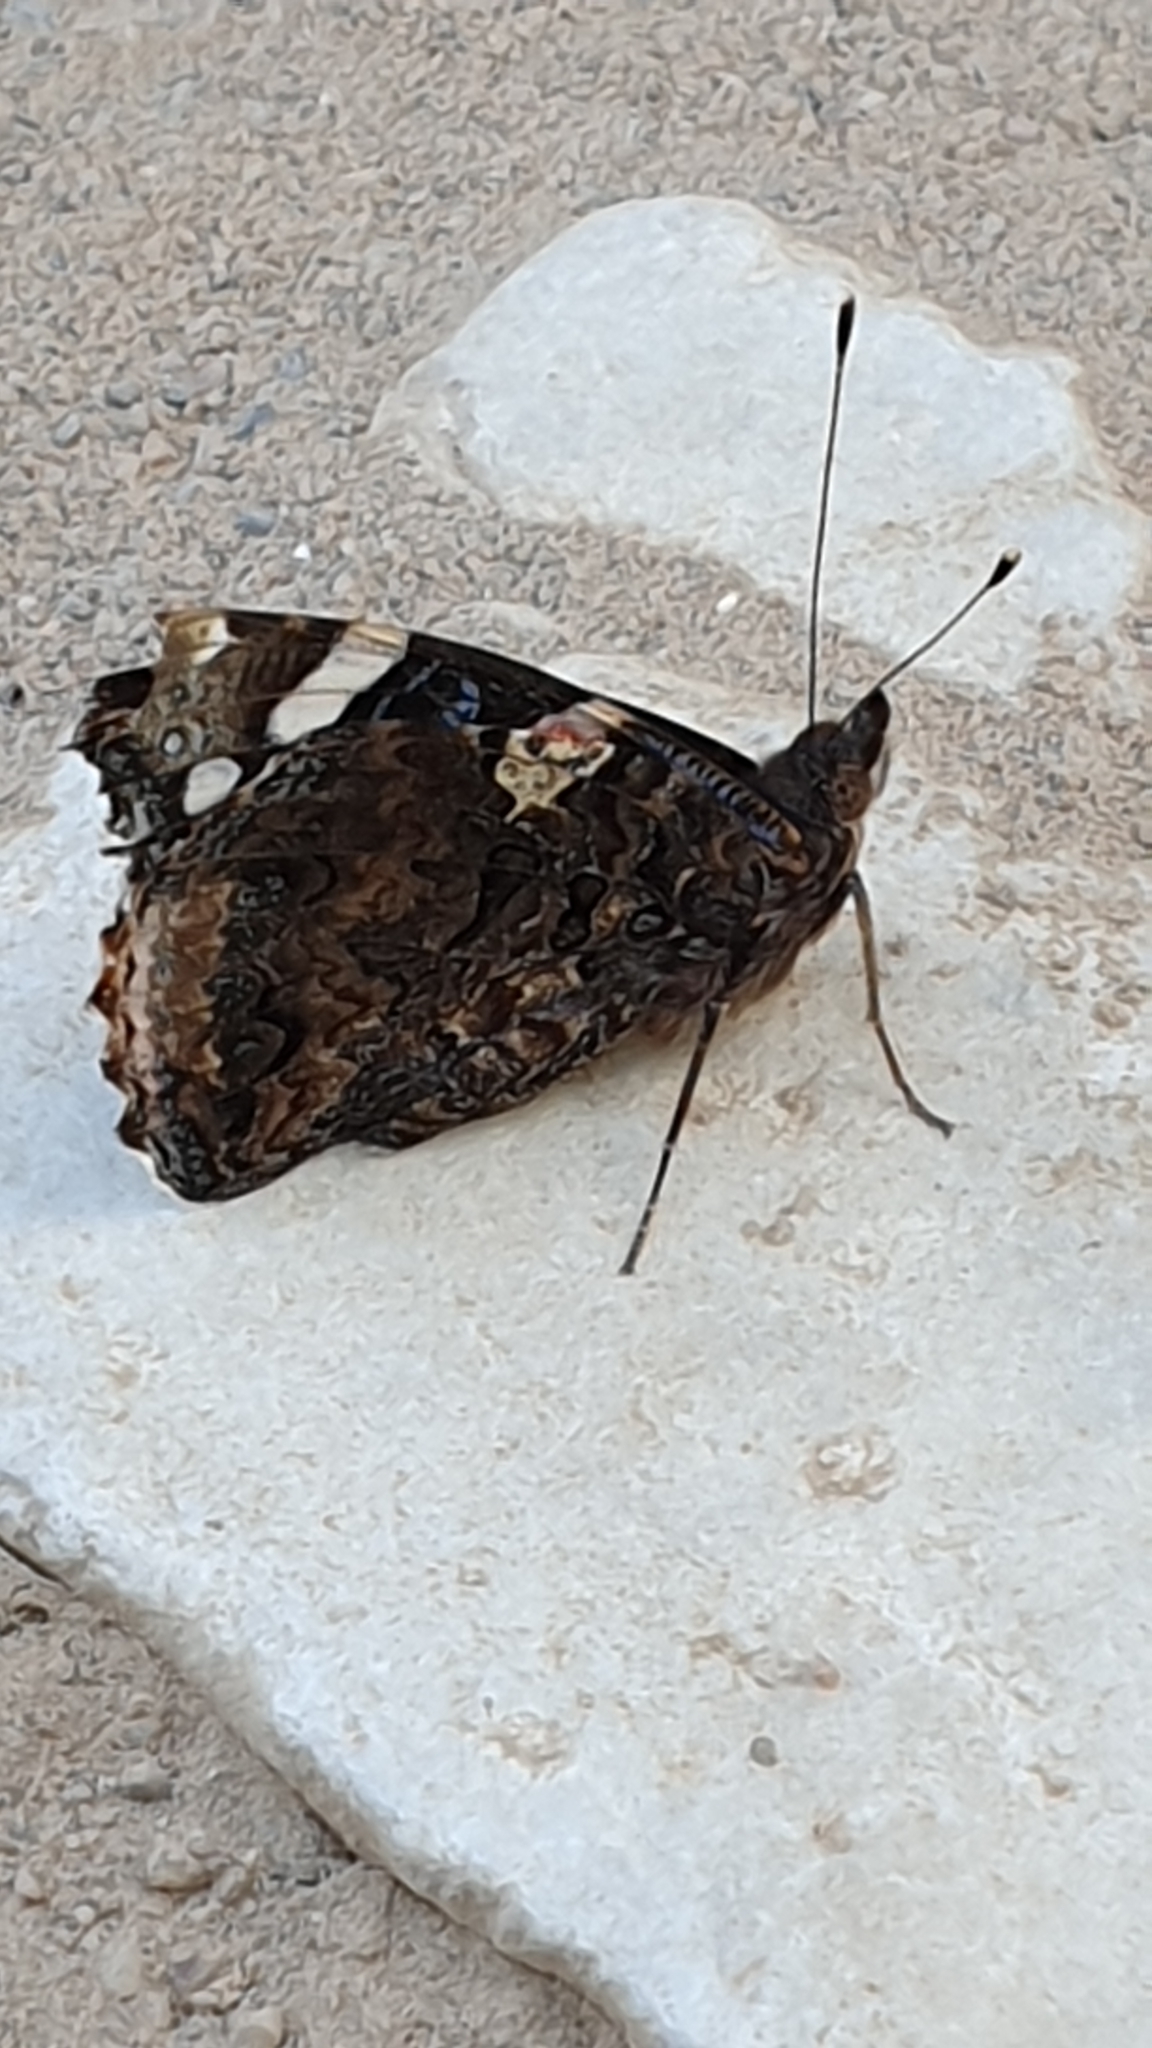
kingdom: Animalia
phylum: Arthropoda
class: Insecta
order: Lepidoptera
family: Nymphalidae
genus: Vanessa
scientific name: Vanessa atalanta
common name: Red admiral
